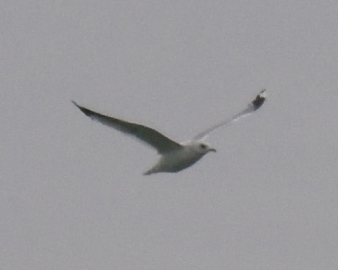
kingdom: Animalia
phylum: Chordata
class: Aves
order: Charadriiformes
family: Laridae
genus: Larus
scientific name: Larus canus
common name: Mew gull
